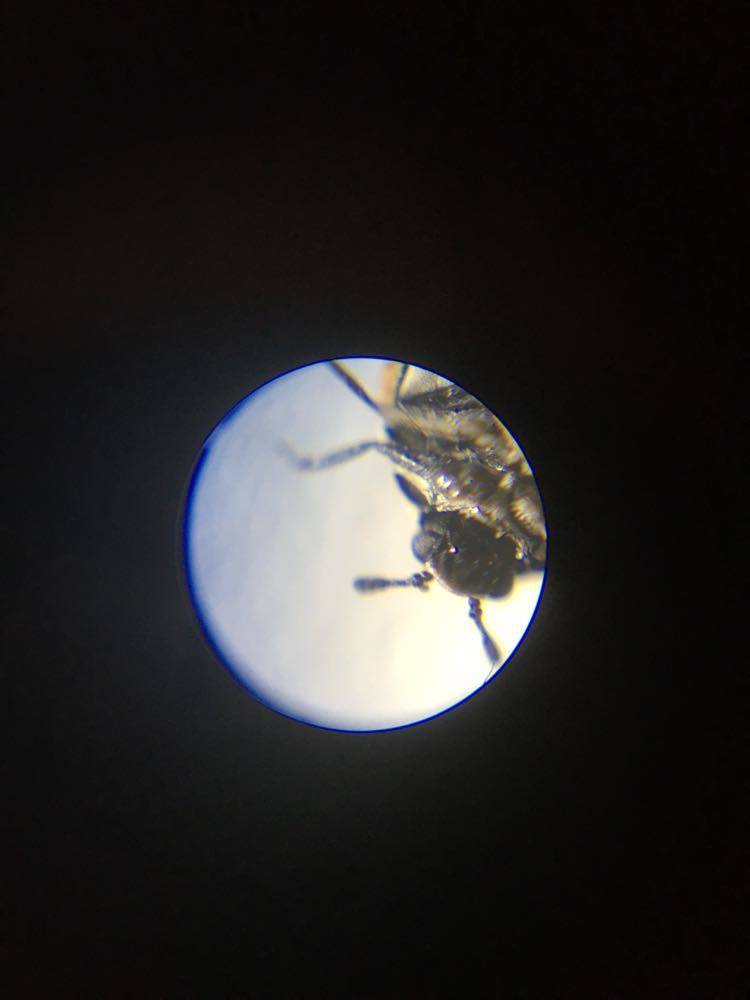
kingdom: Animalia
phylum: Arthropoda
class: Insecta
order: Coleoptera
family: Dermestidae
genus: Anthrenus
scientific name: Anthrenus verbasci
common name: Varied carpet beetle
